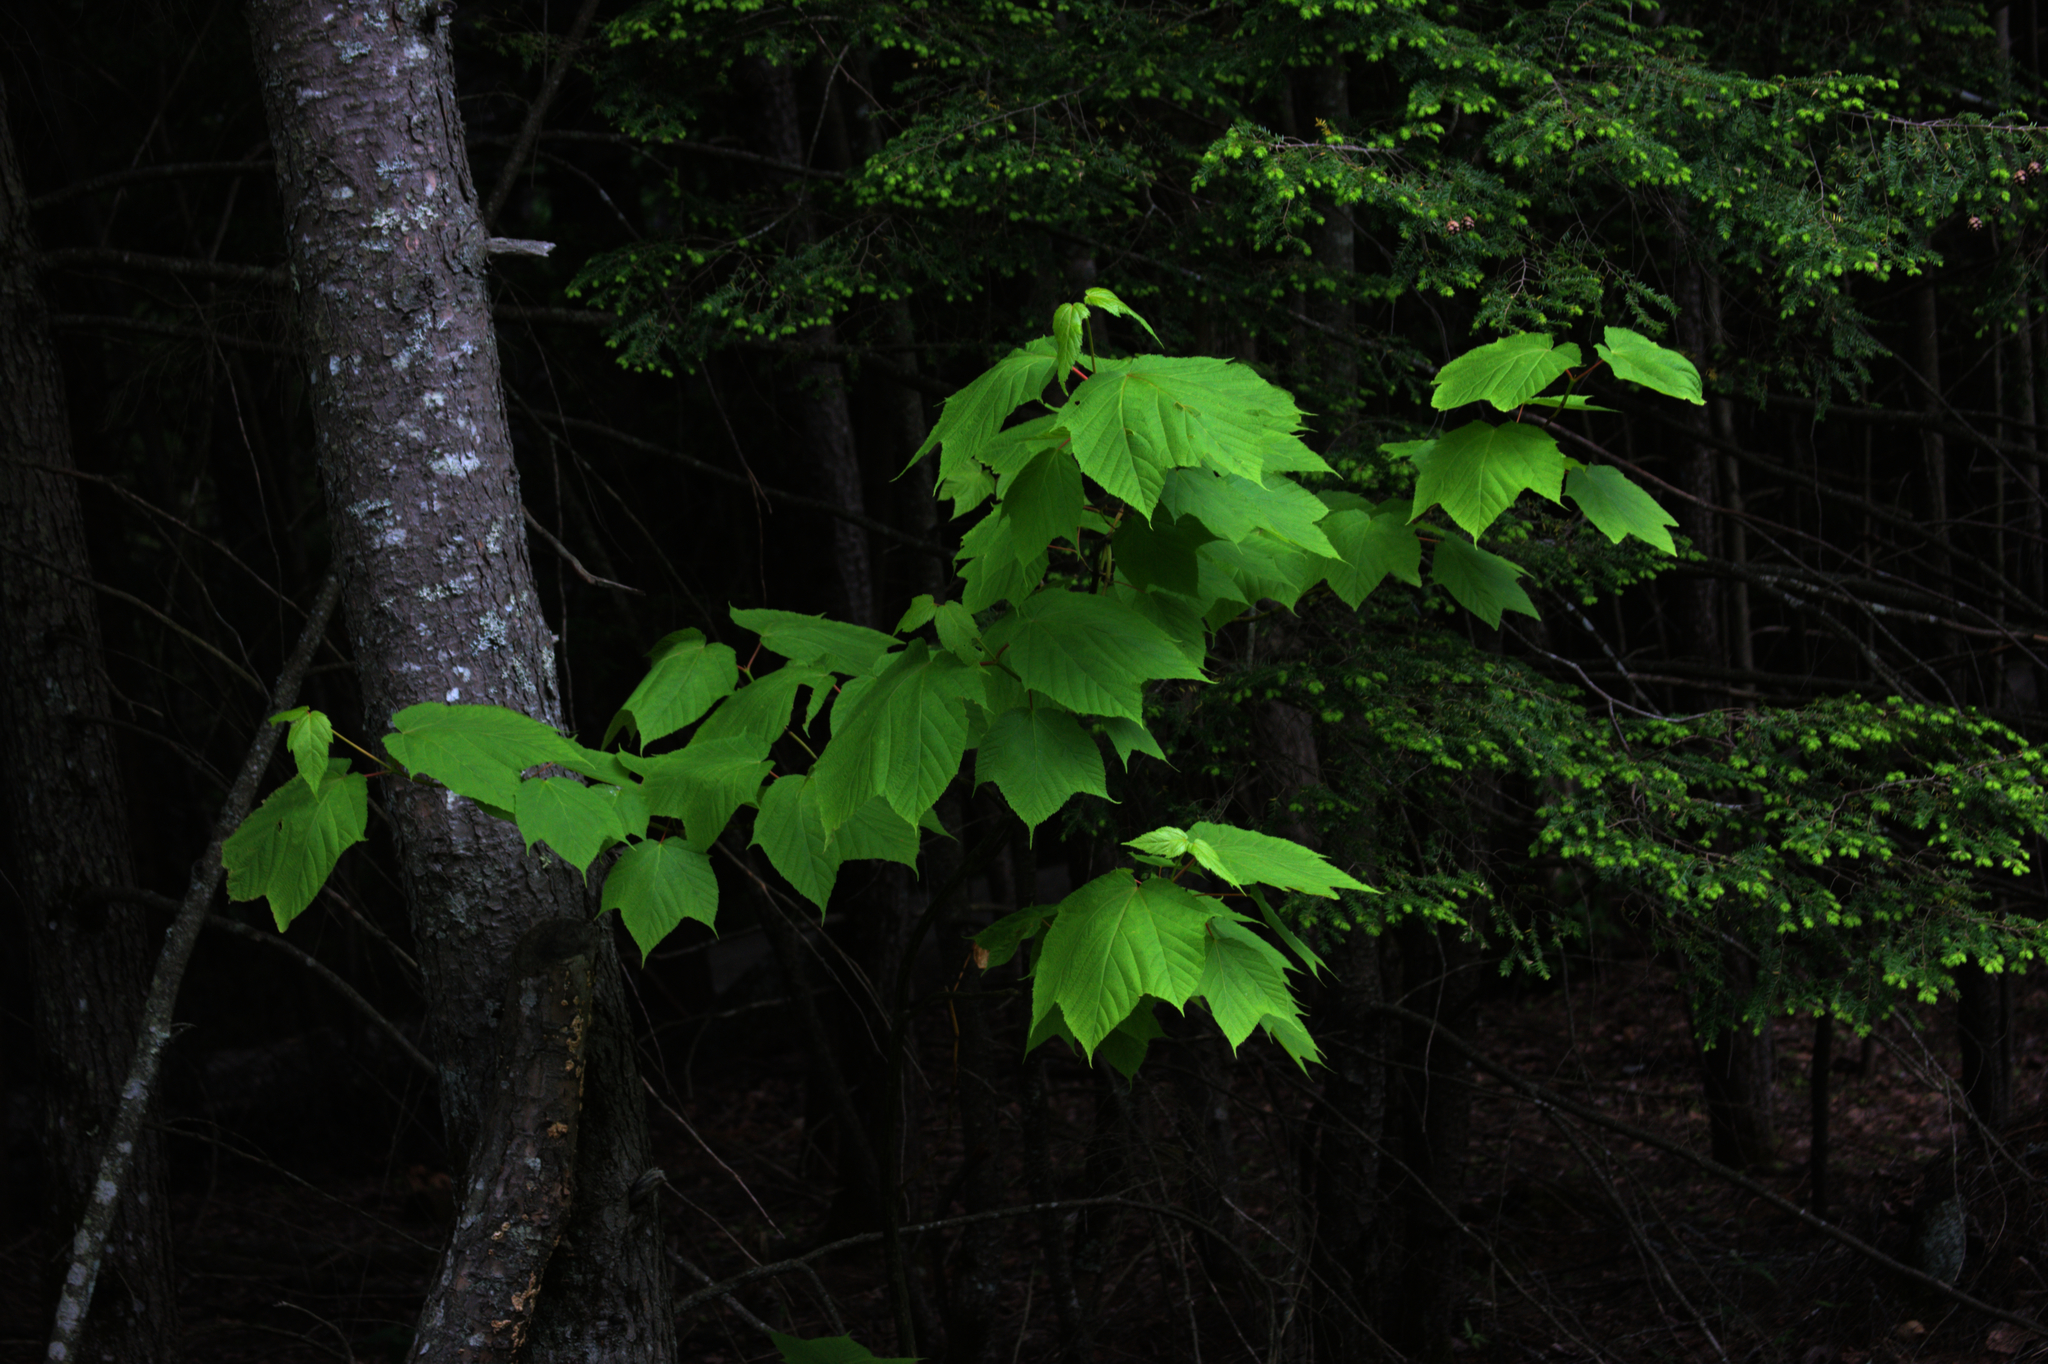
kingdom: Plantae
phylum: Tracheophyta
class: Magnoliopsida
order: Sapindales
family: Sapindaceae
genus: Acer
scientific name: Acer pensylvanicum
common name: Moosewood
